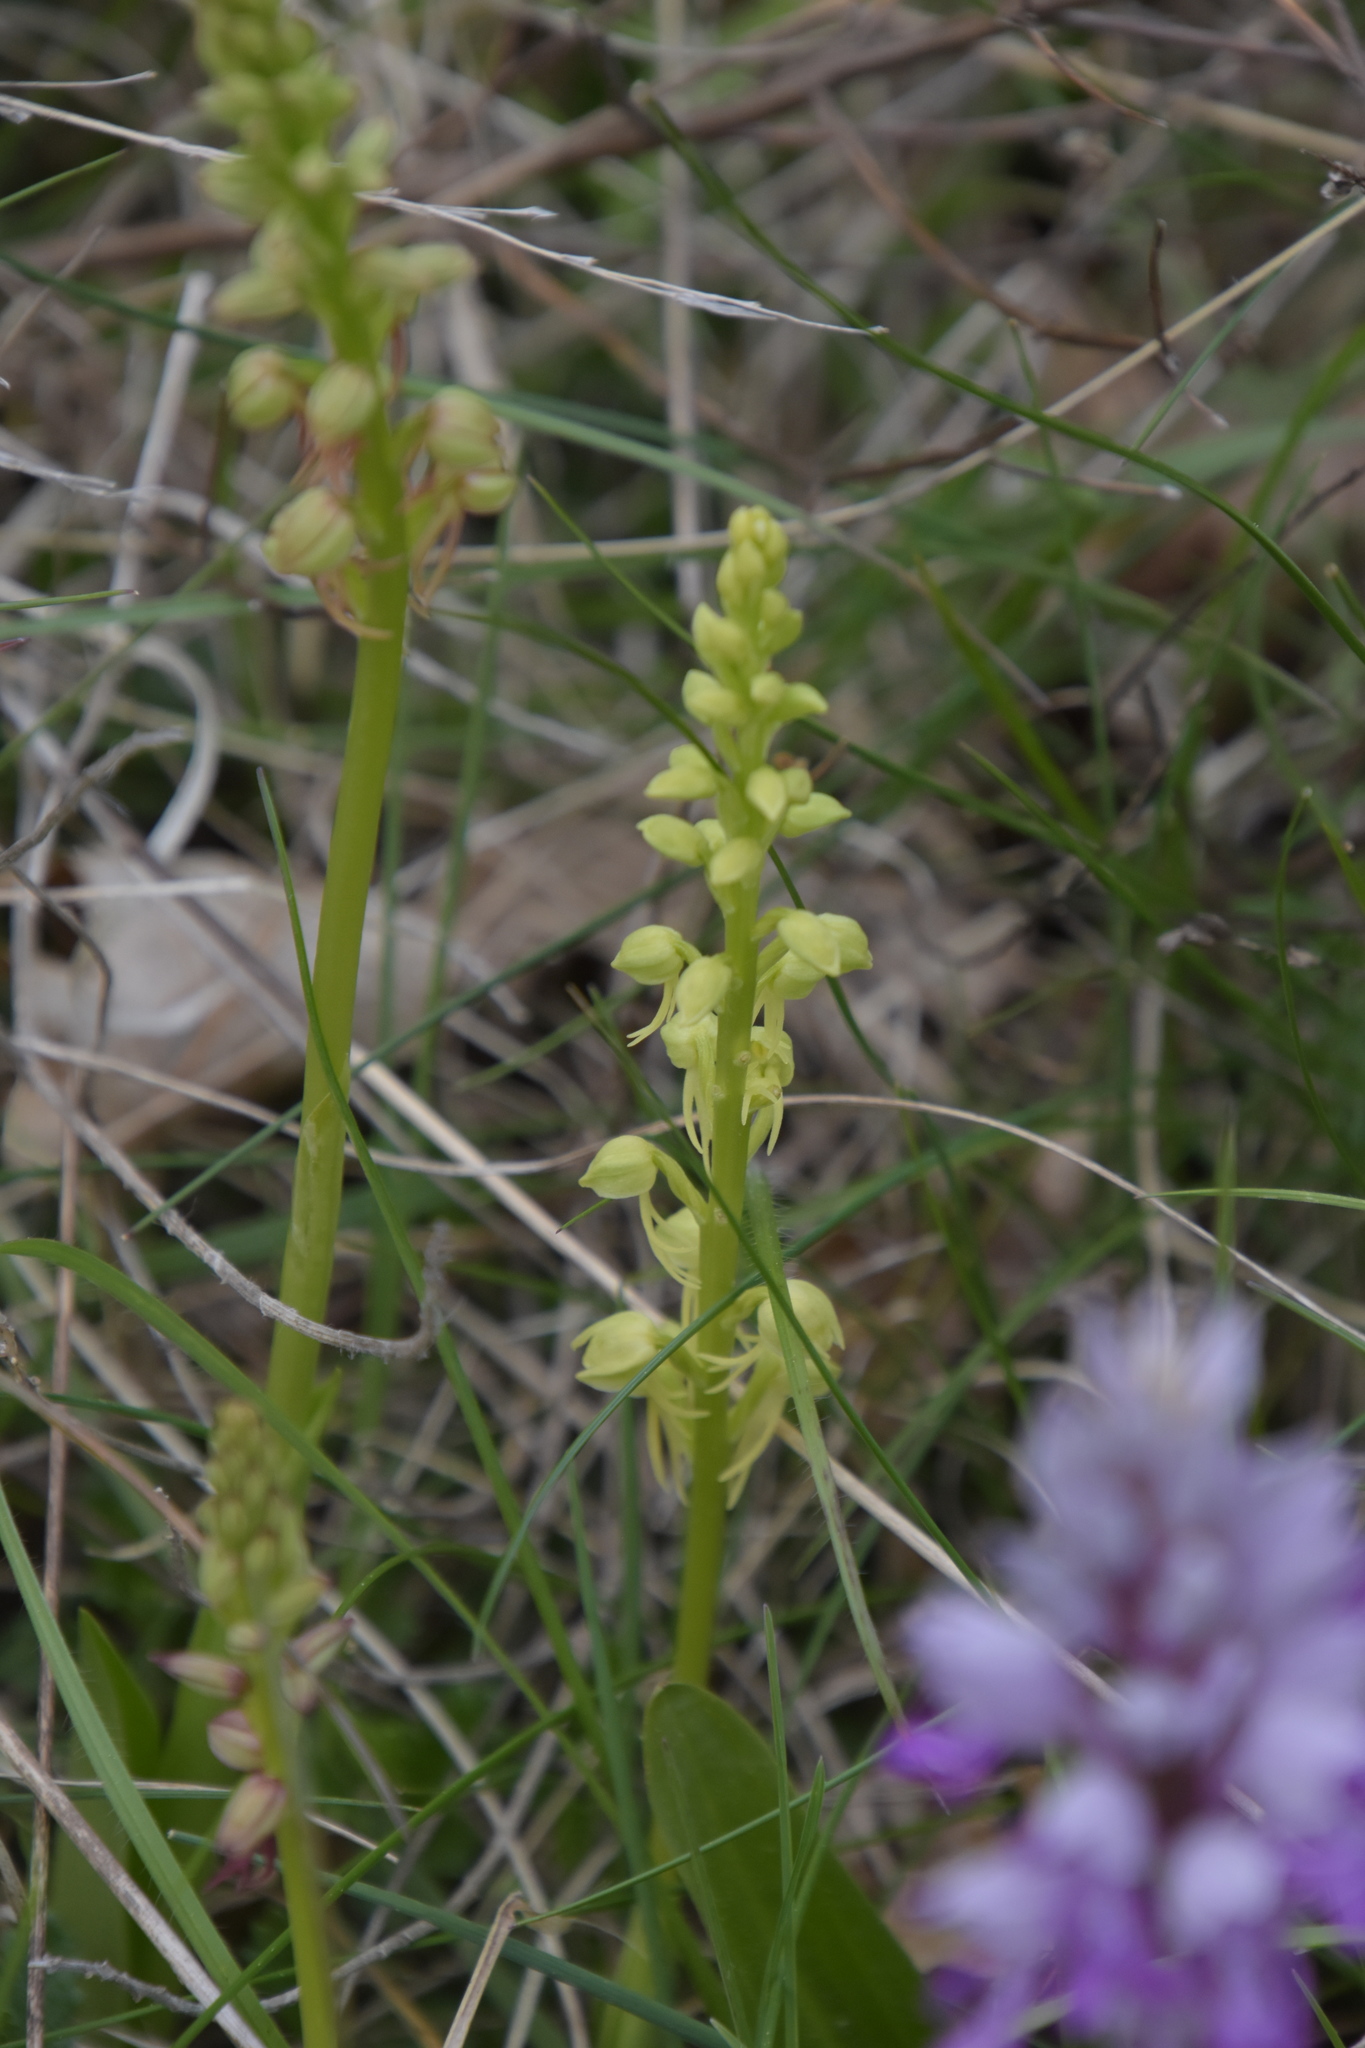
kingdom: Plantae
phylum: Tracheophyta
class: Liliopsida
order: Asparagales
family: Orchidaceae
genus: Orchis
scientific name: Orchis anthropophora
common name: Man orchid
